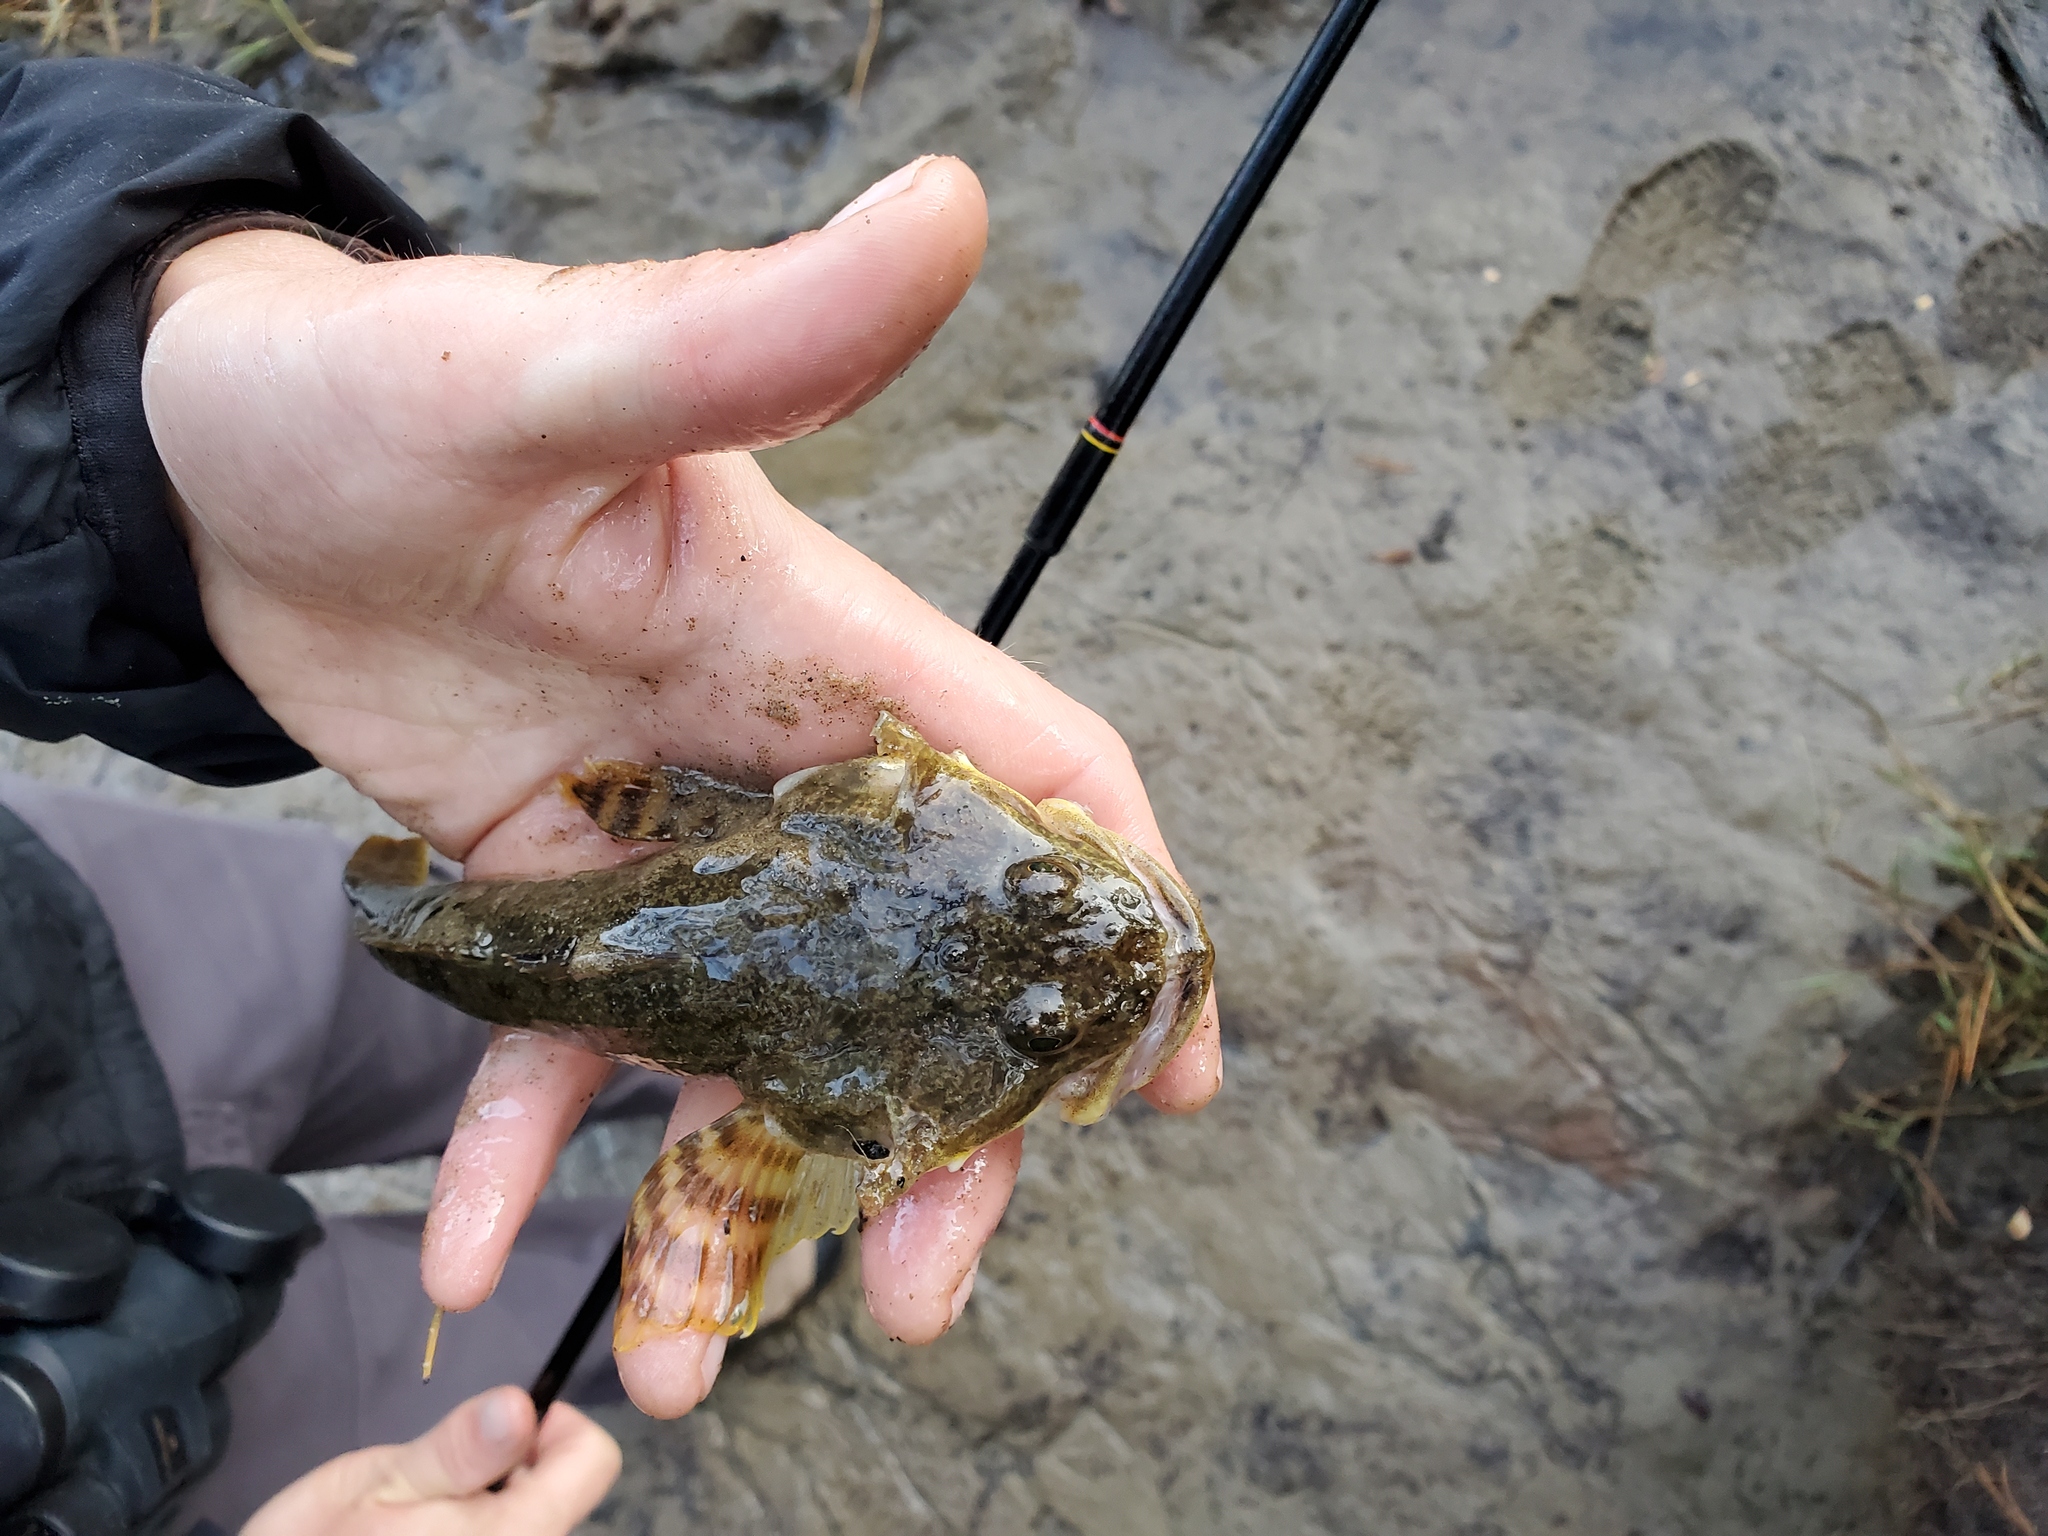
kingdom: Animalia
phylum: Chordata
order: Scorpaeniformes
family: Cottidae
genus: Leptocottus
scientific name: Leptocottus armatus
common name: Pacific staghorn sculpin
